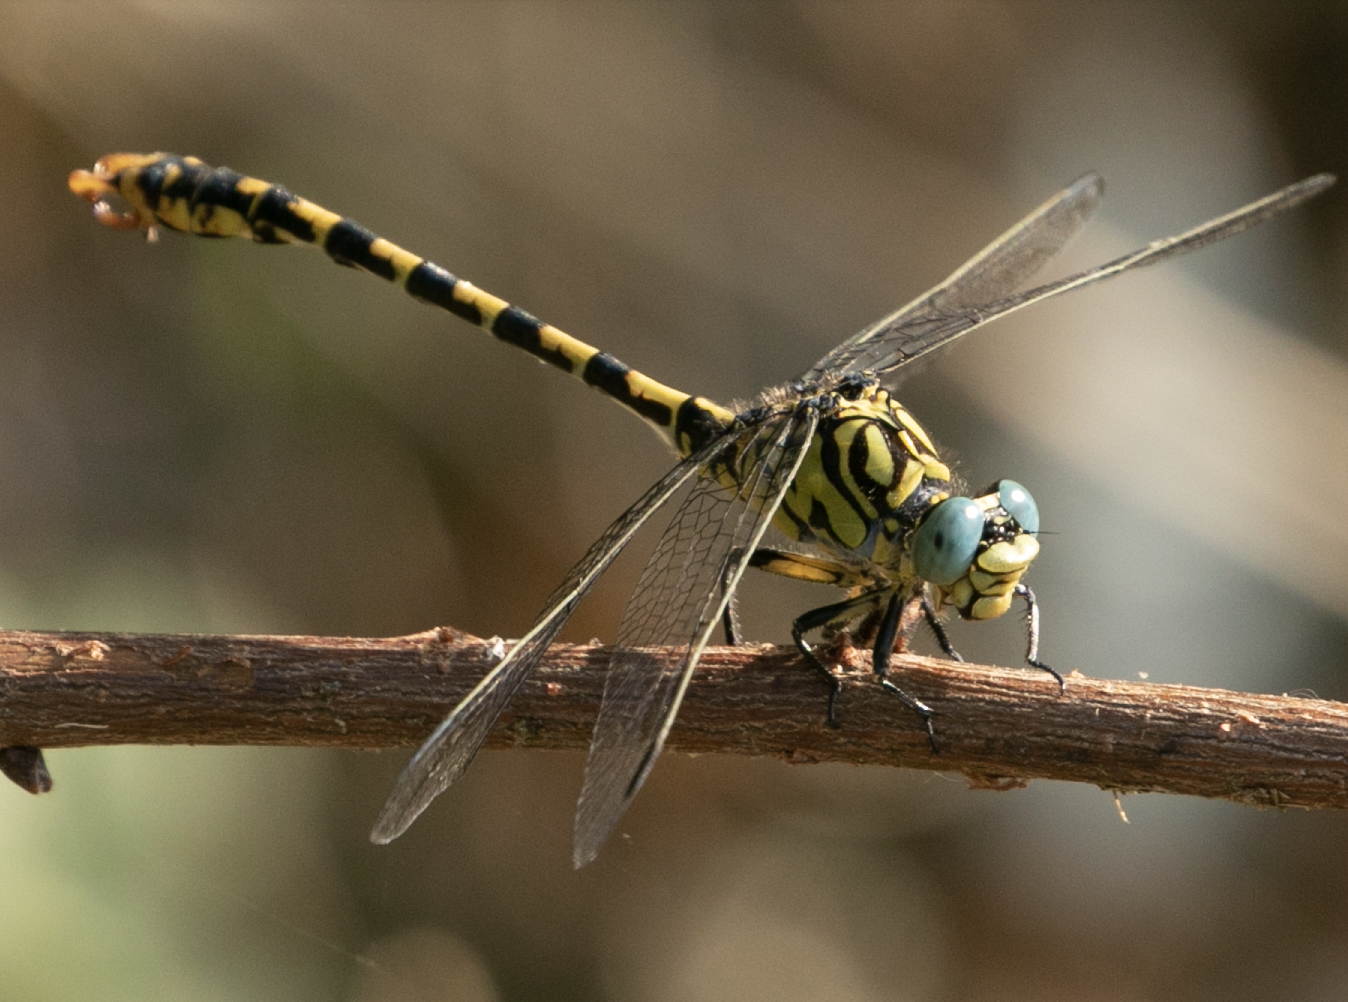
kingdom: Animalia
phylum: Arthropoda
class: Insecta
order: Odonata
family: Gomphidae
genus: Onychogomphus
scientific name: Onychogomphus forcipatus
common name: Small pincertail
